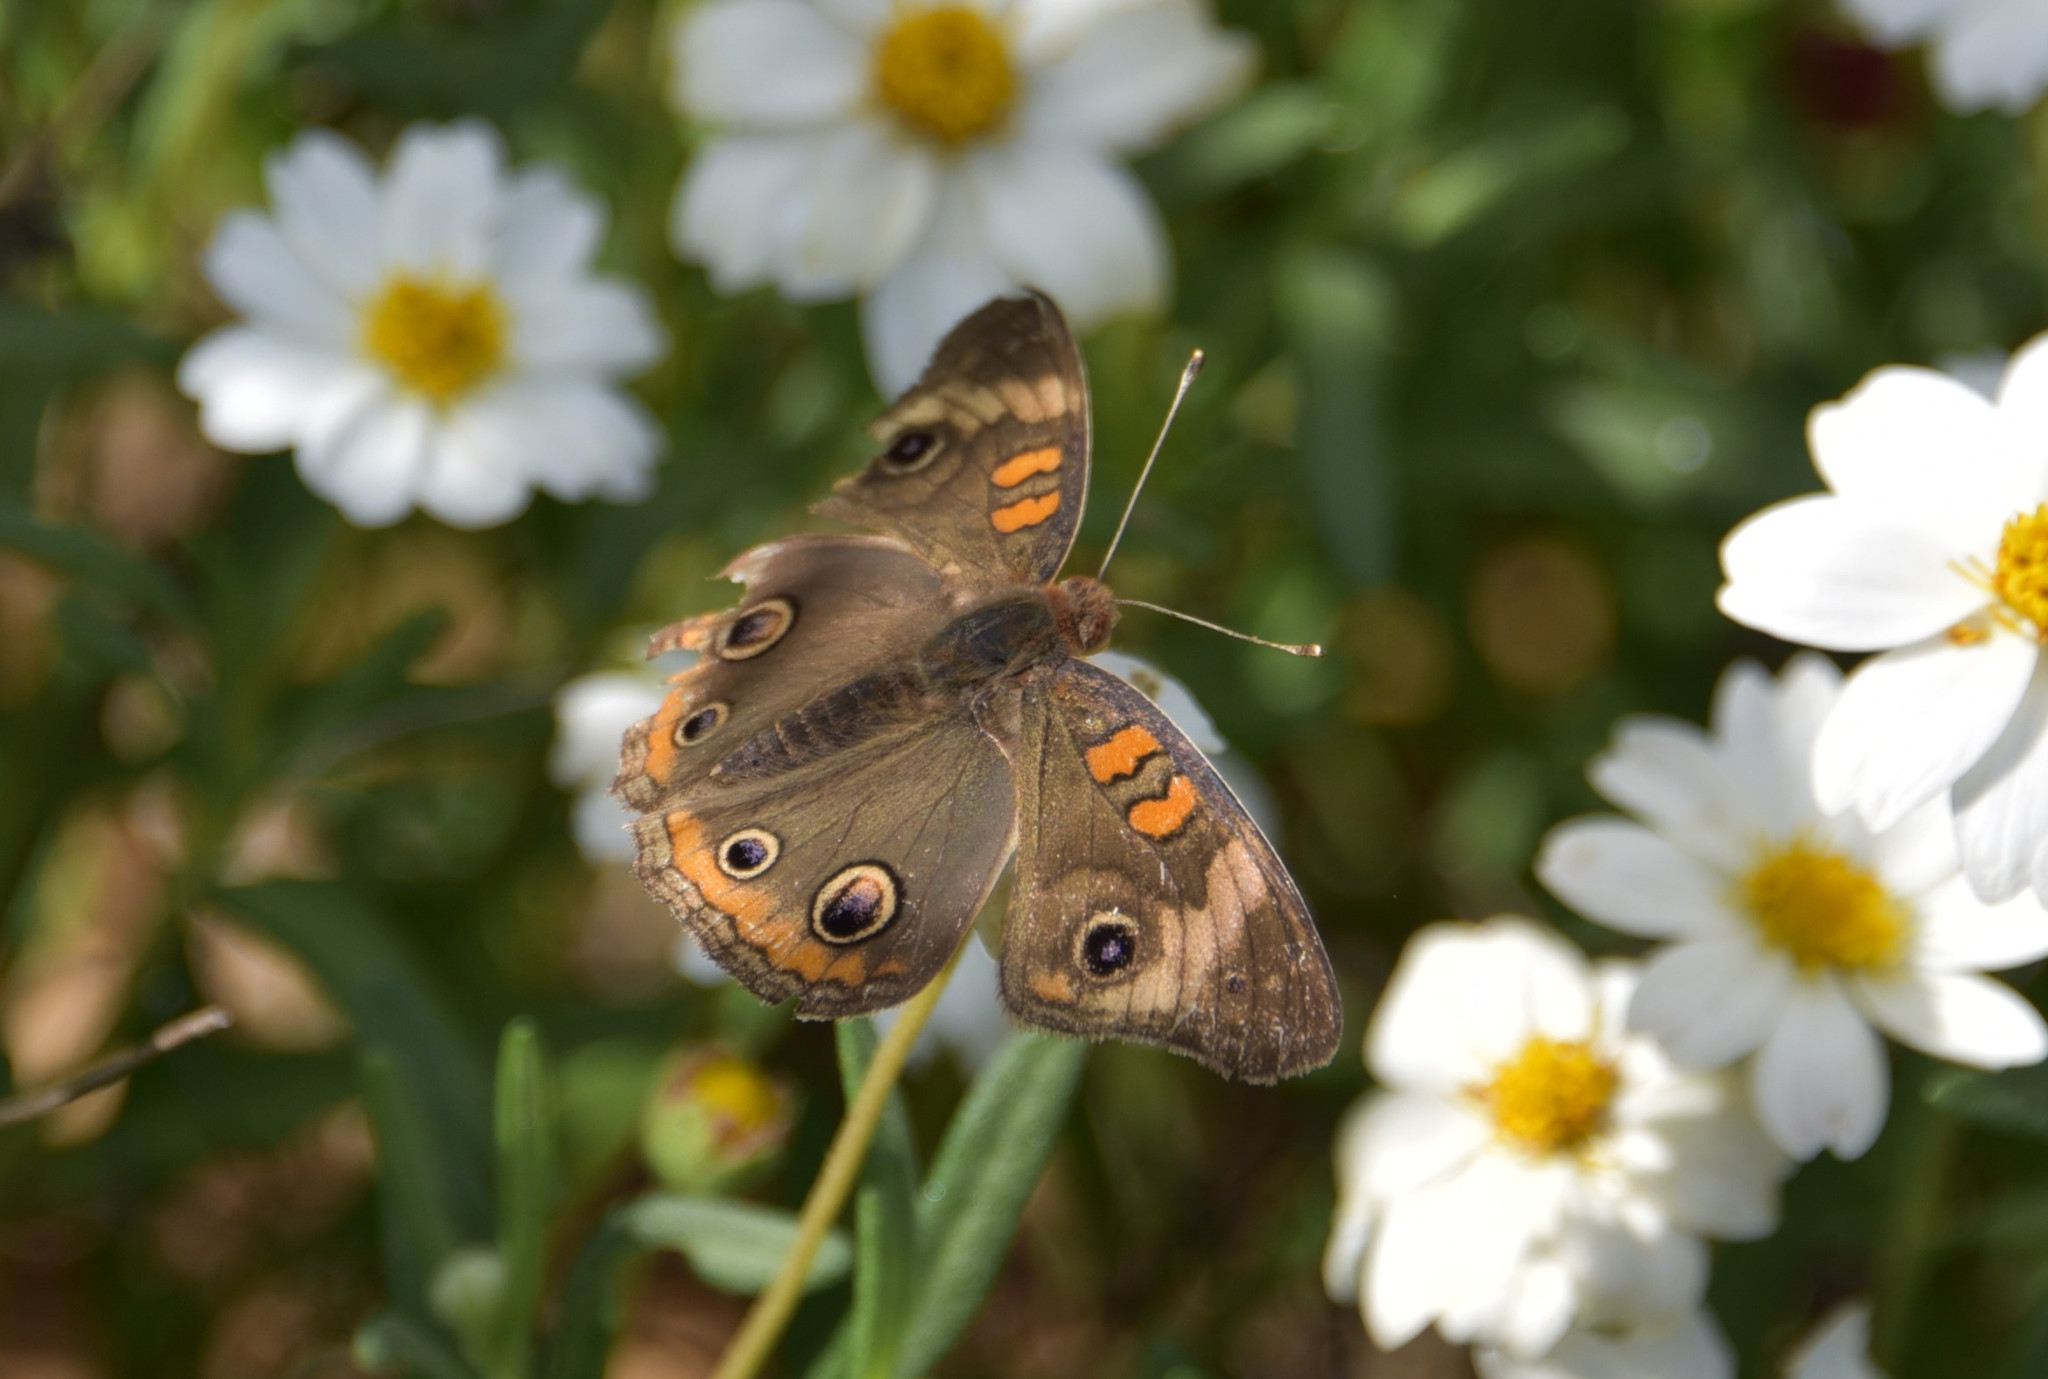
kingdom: Animalia
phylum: Arthropoda
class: Insecta
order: Lepidoptera
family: Nymphalidae
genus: Junonia
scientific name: Junonia coenia
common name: Common buckeye
